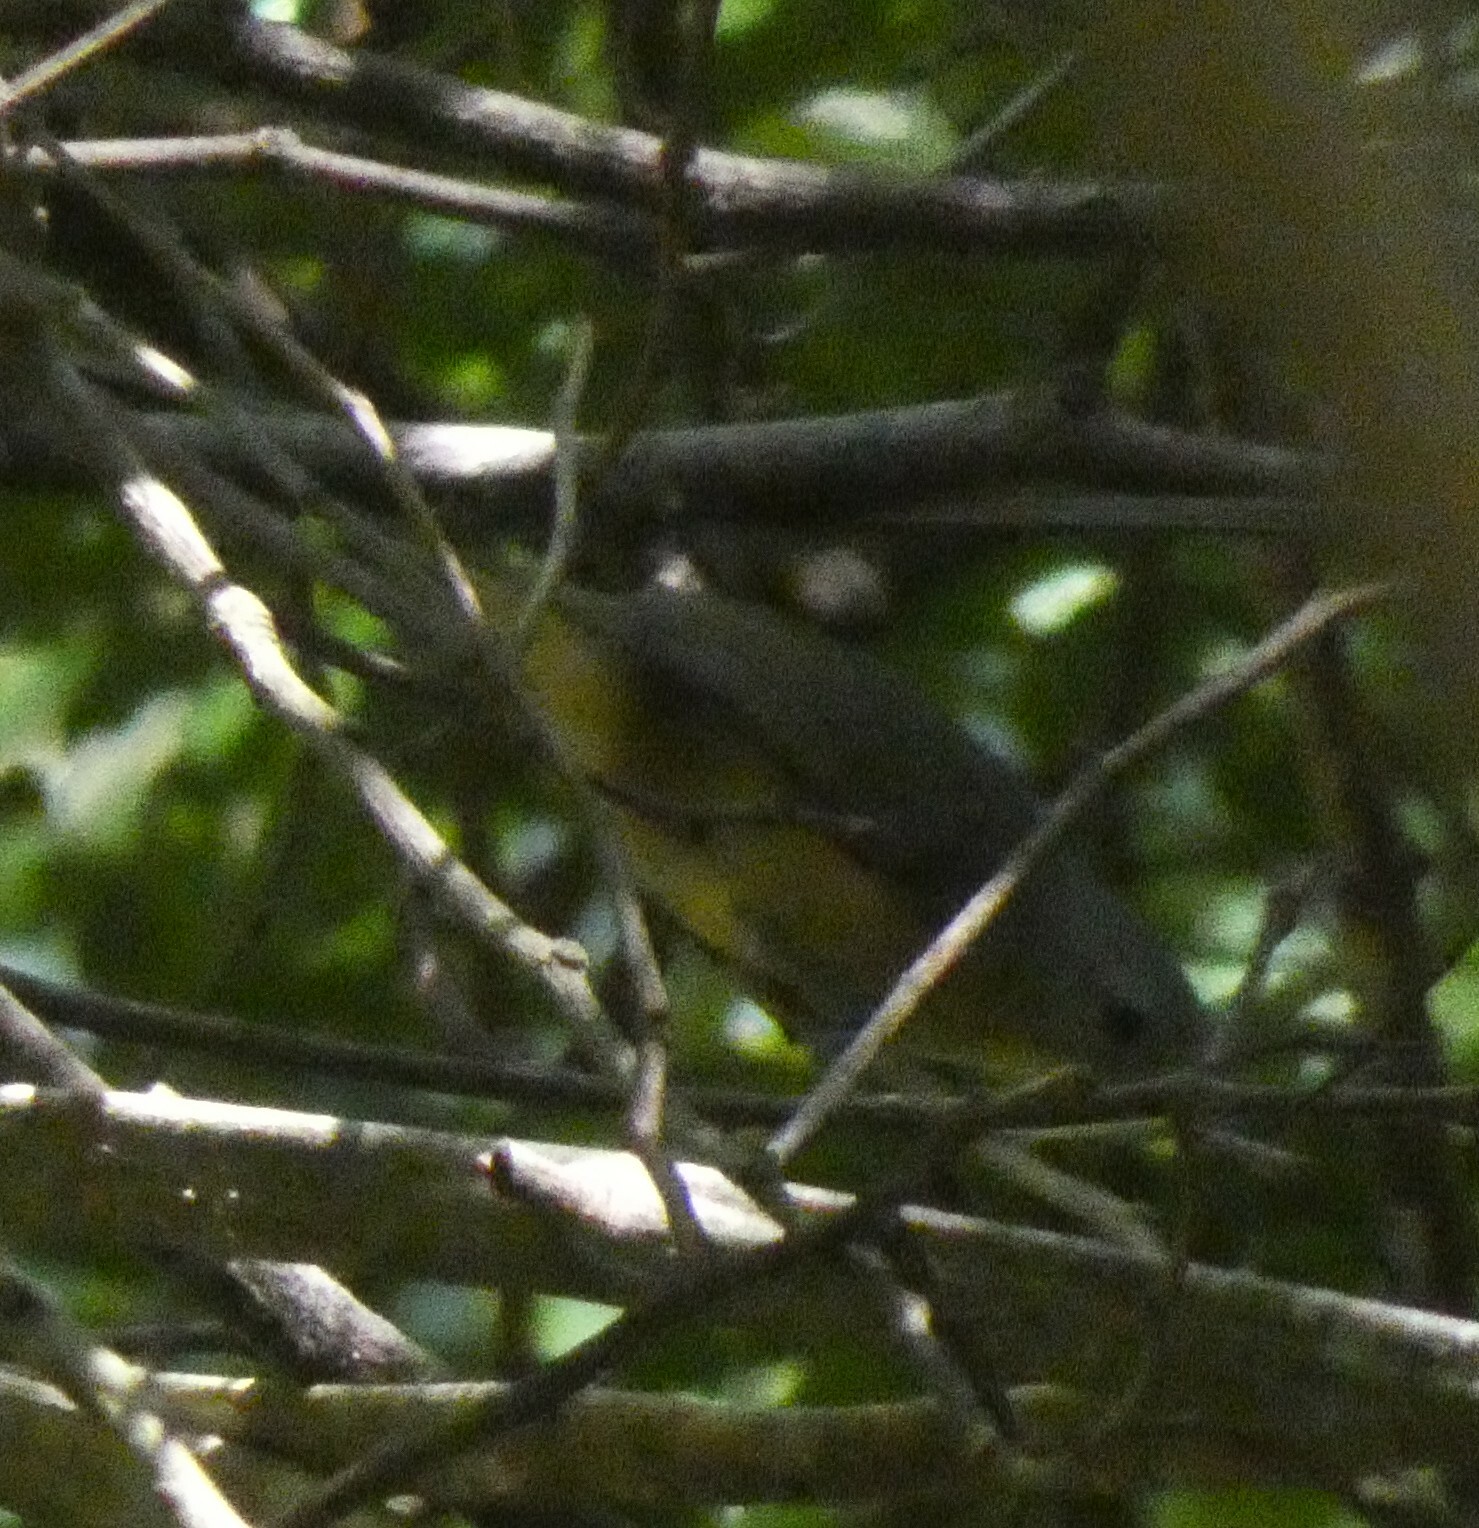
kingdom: Animalia
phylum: Chordata
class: Aves
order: Passeriformes
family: Parulidae
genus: Basileuterus
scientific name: Basileuterus culicivorus
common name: Golden-crowned warbler
